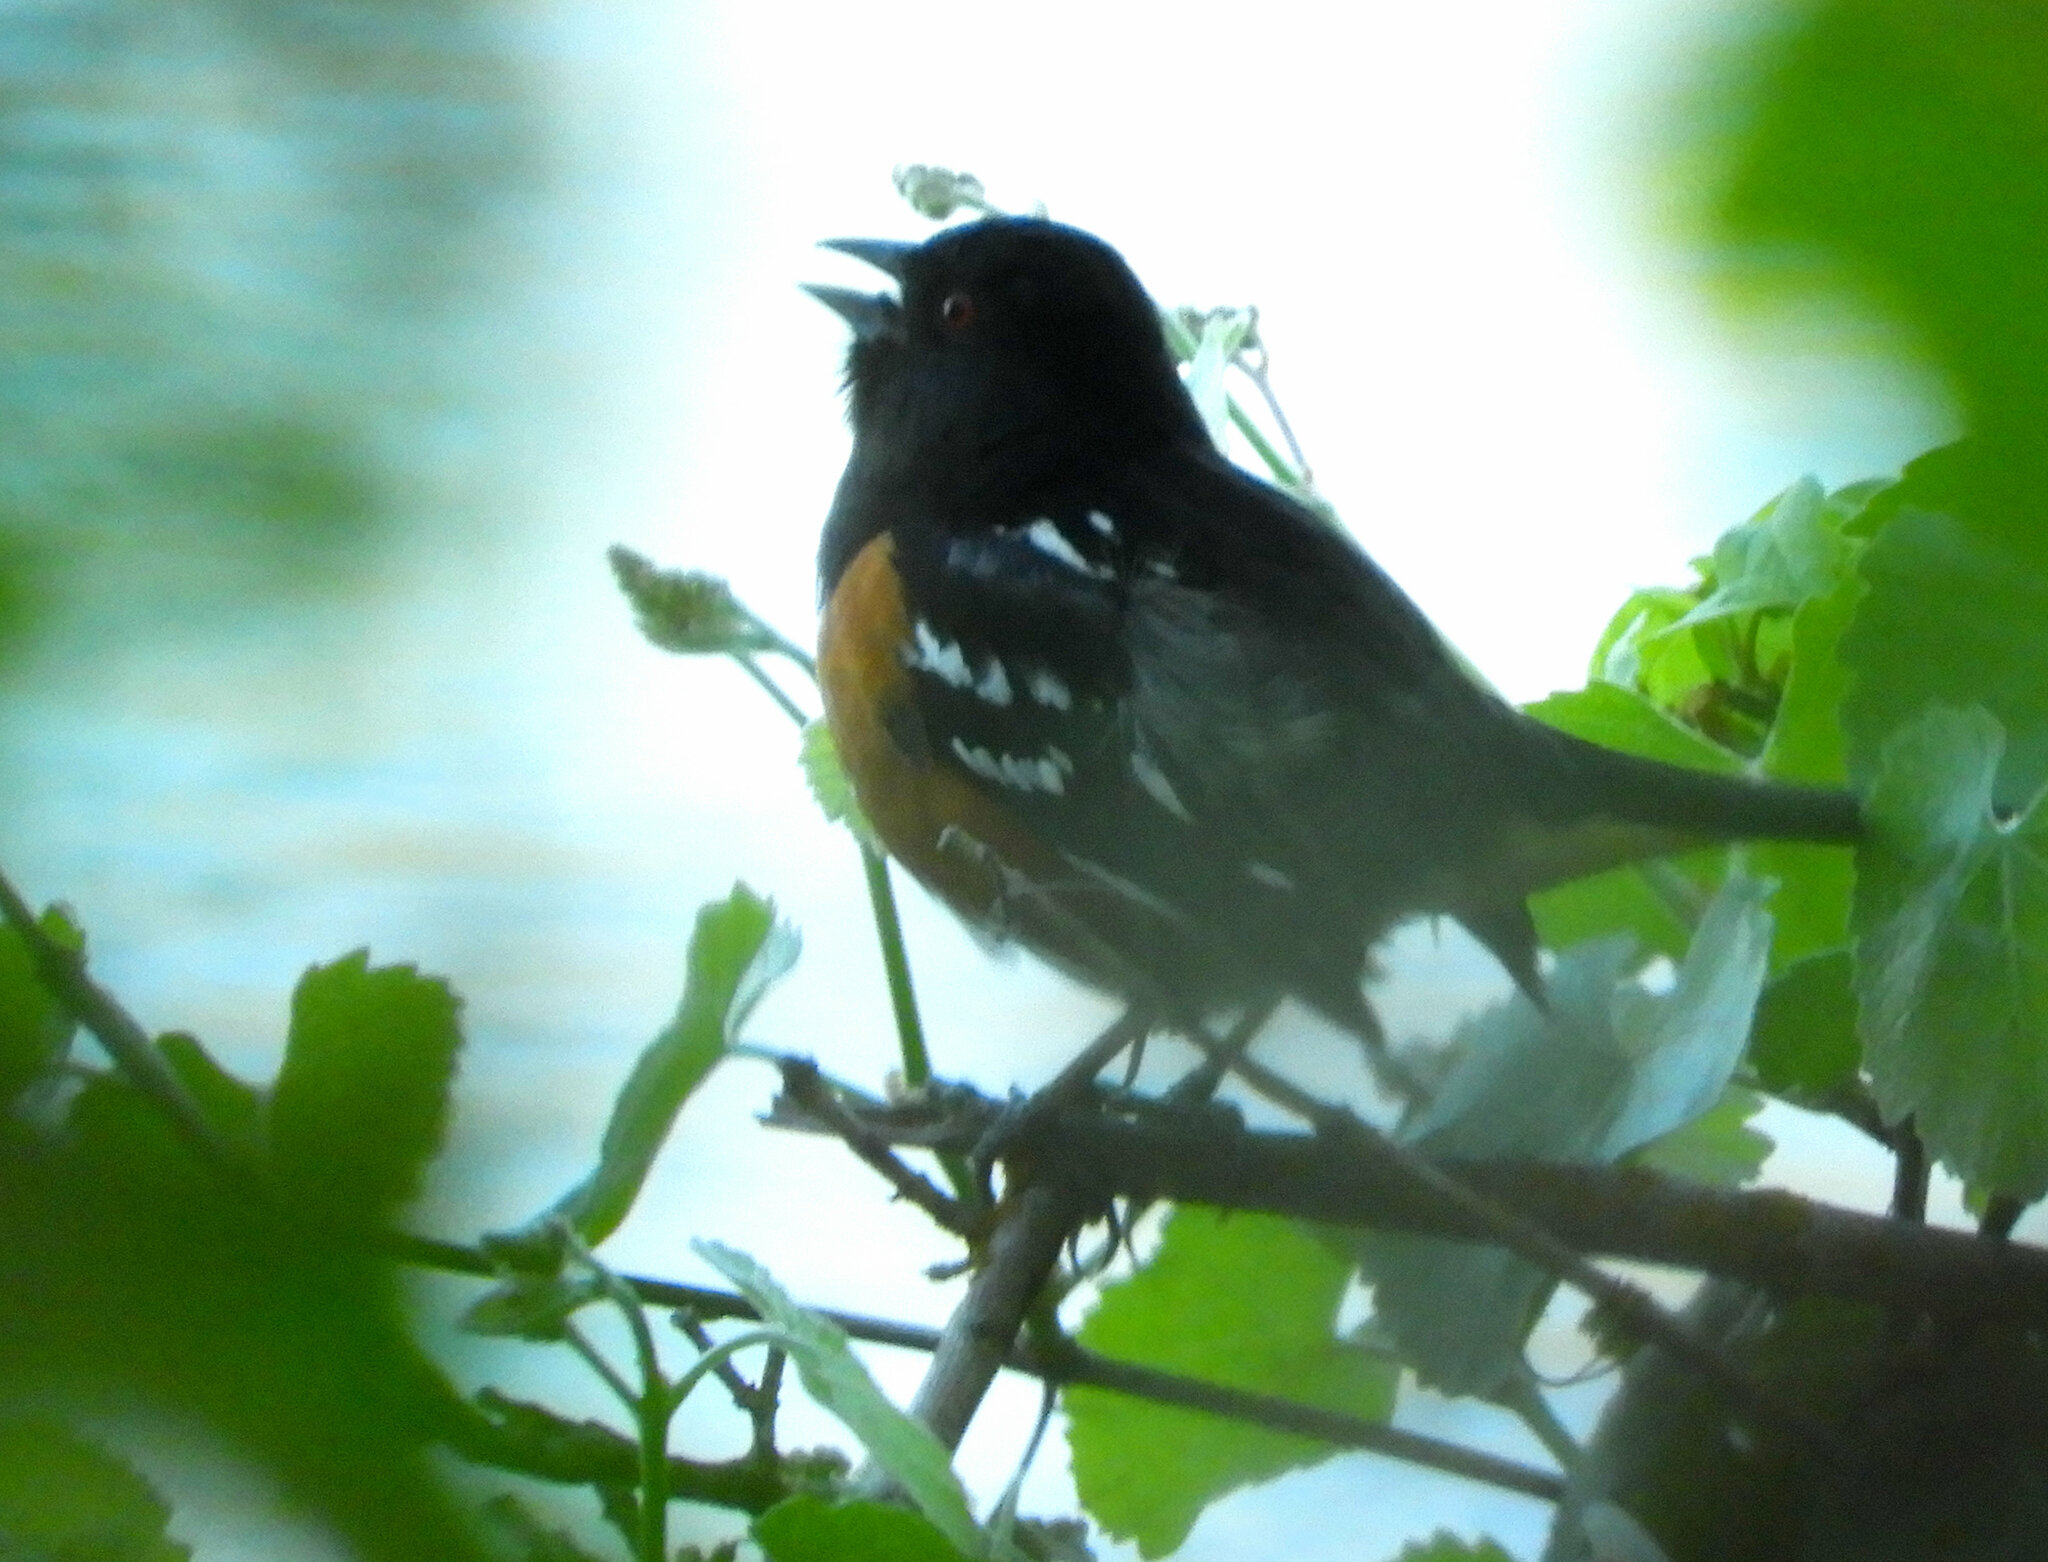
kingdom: Animalia
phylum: Chordata
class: Aves
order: Passeriformes
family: Passerellidae
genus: Pipilo
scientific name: Pipilo maculatus
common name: Spotted towhee
